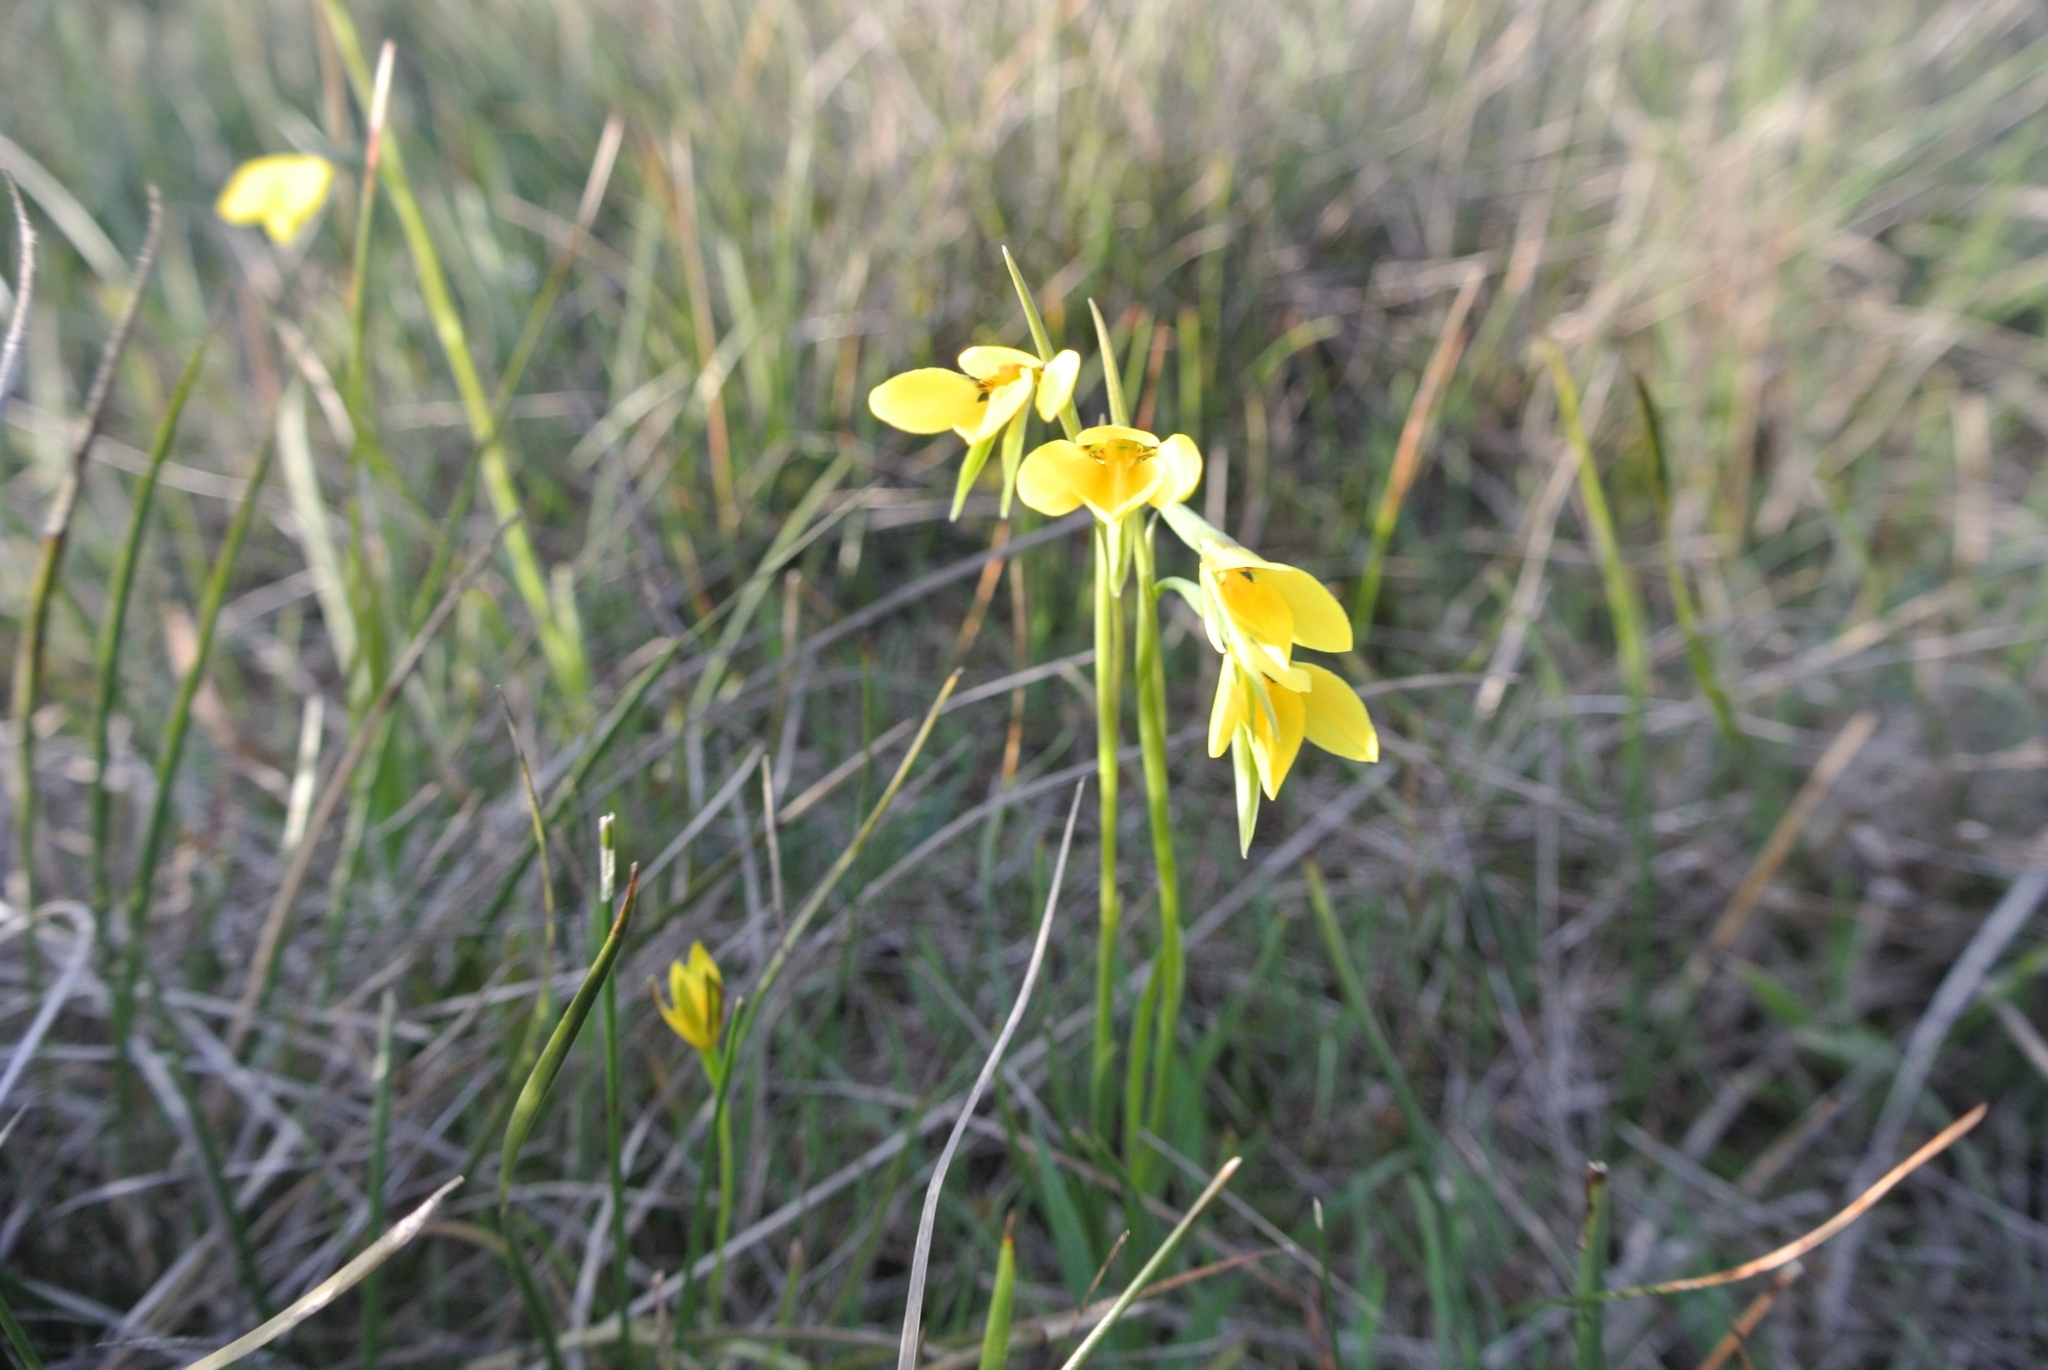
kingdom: Plantae
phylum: Tracheophyta
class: Liliopsida
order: Asparagales
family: Orchidaceae
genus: Diuris
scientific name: Diuris chryseopsis
